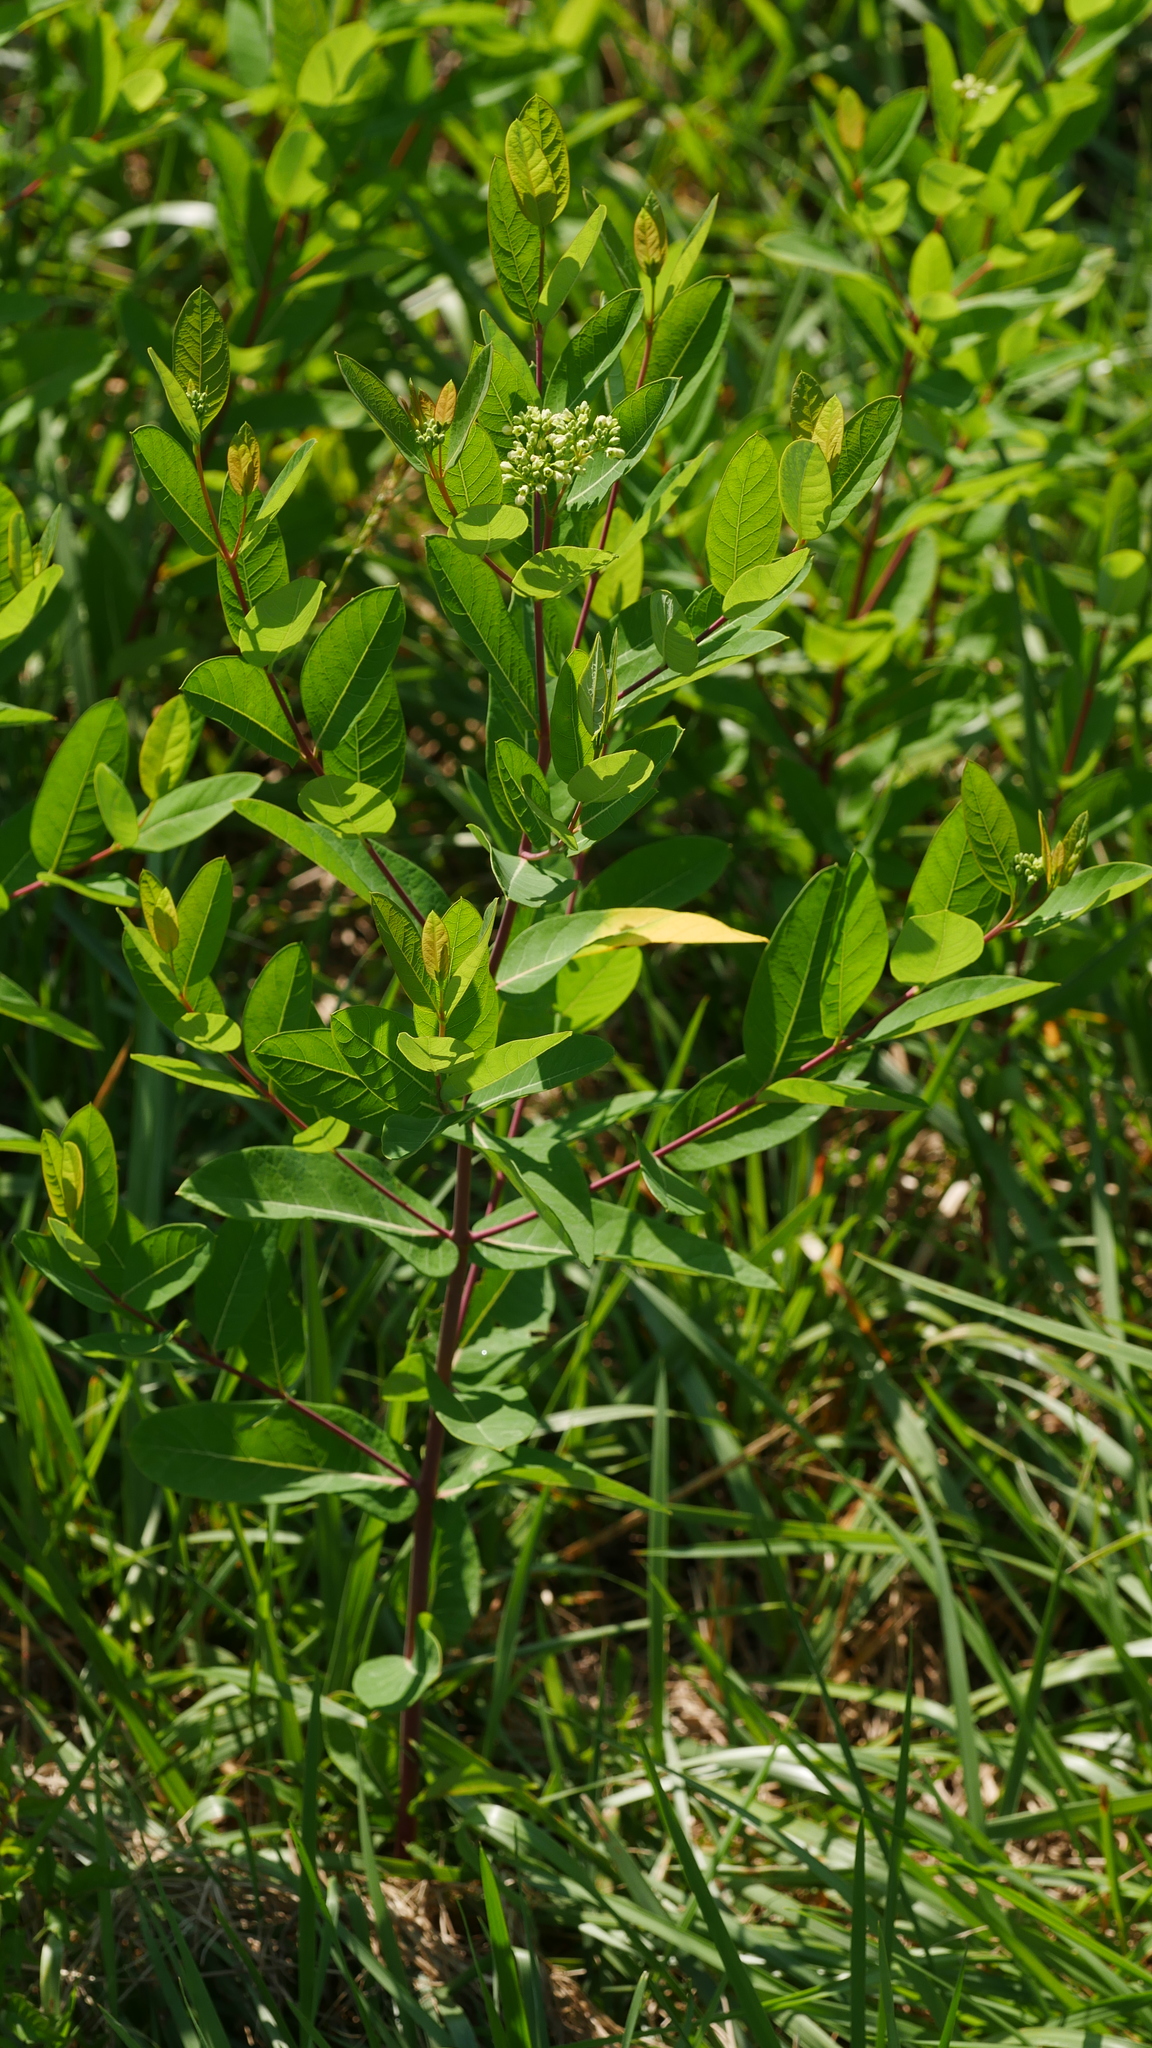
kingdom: Plantae
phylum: Tracheophyta
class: Magnoliopsida
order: Gentianales
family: Apocynaceae
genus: Apocynum
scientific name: Apocynum cannabinum
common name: Hemp dogbane
